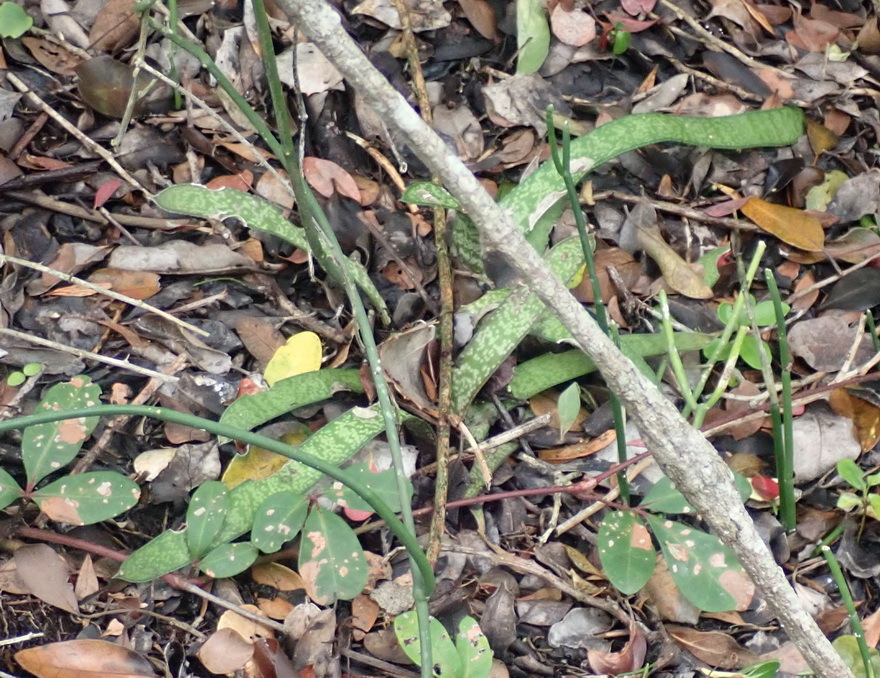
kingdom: Plantae
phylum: Tracheophyta
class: Liliopsida
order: Asparagales
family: Asphodelaceae
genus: Gasteria
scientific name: Gasteria acinacifolia
